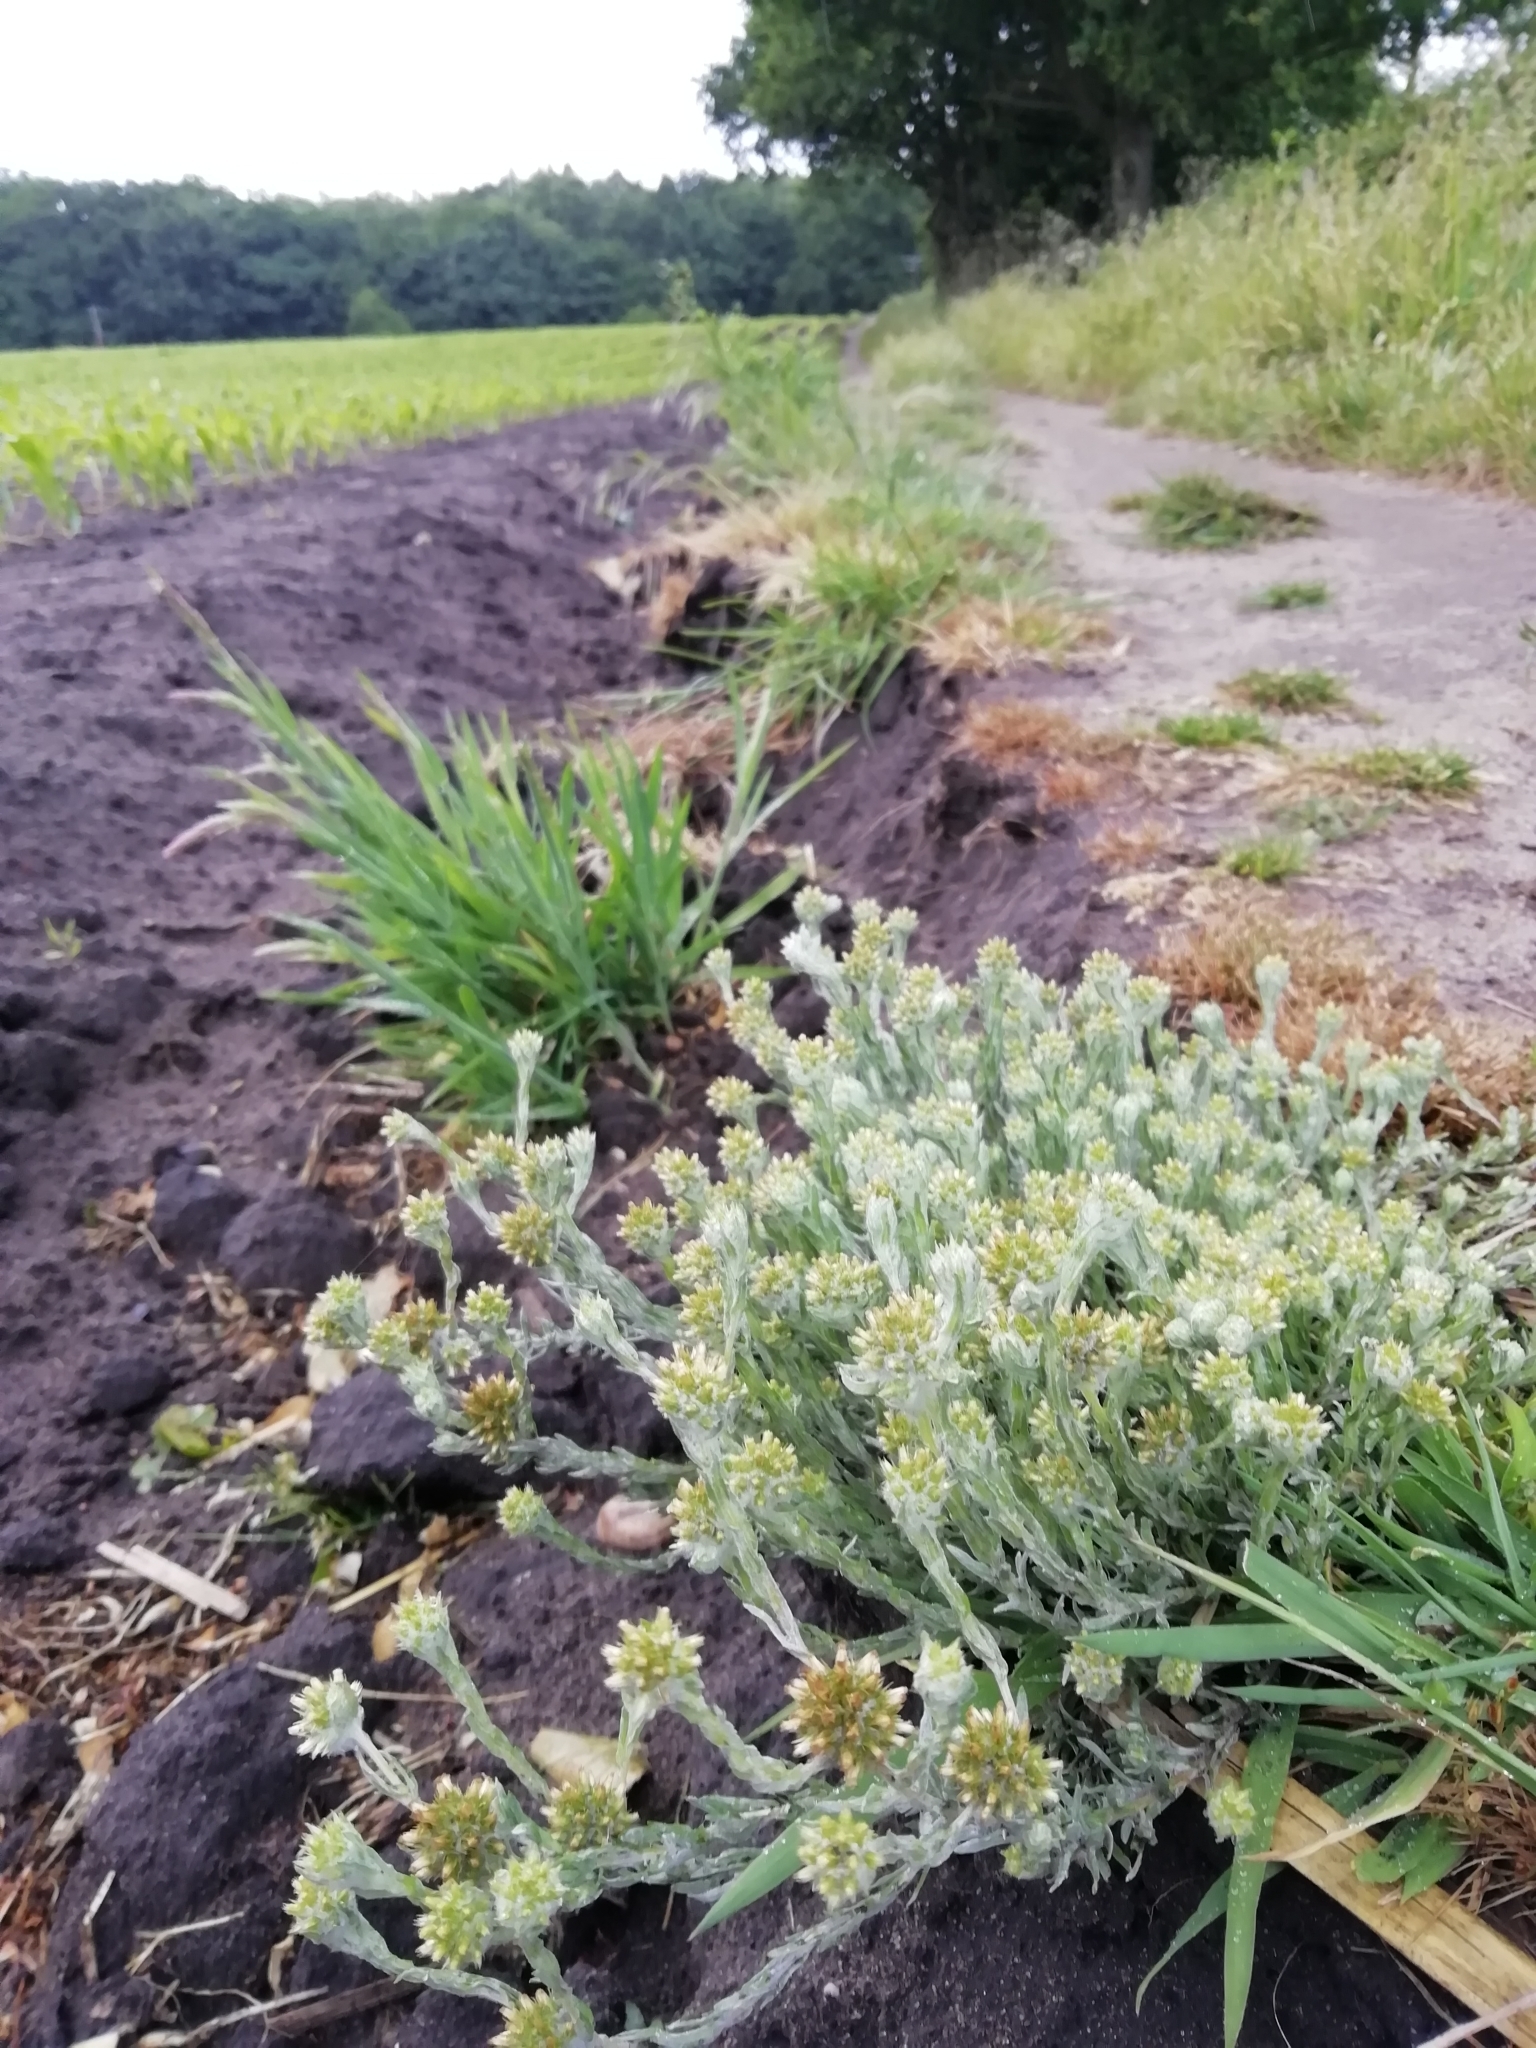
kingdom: Plantae
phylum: Tracheophyta
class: Magnoliopsida
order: Asterales
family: Asteraceae
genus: Filago
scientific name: Filago germanica
